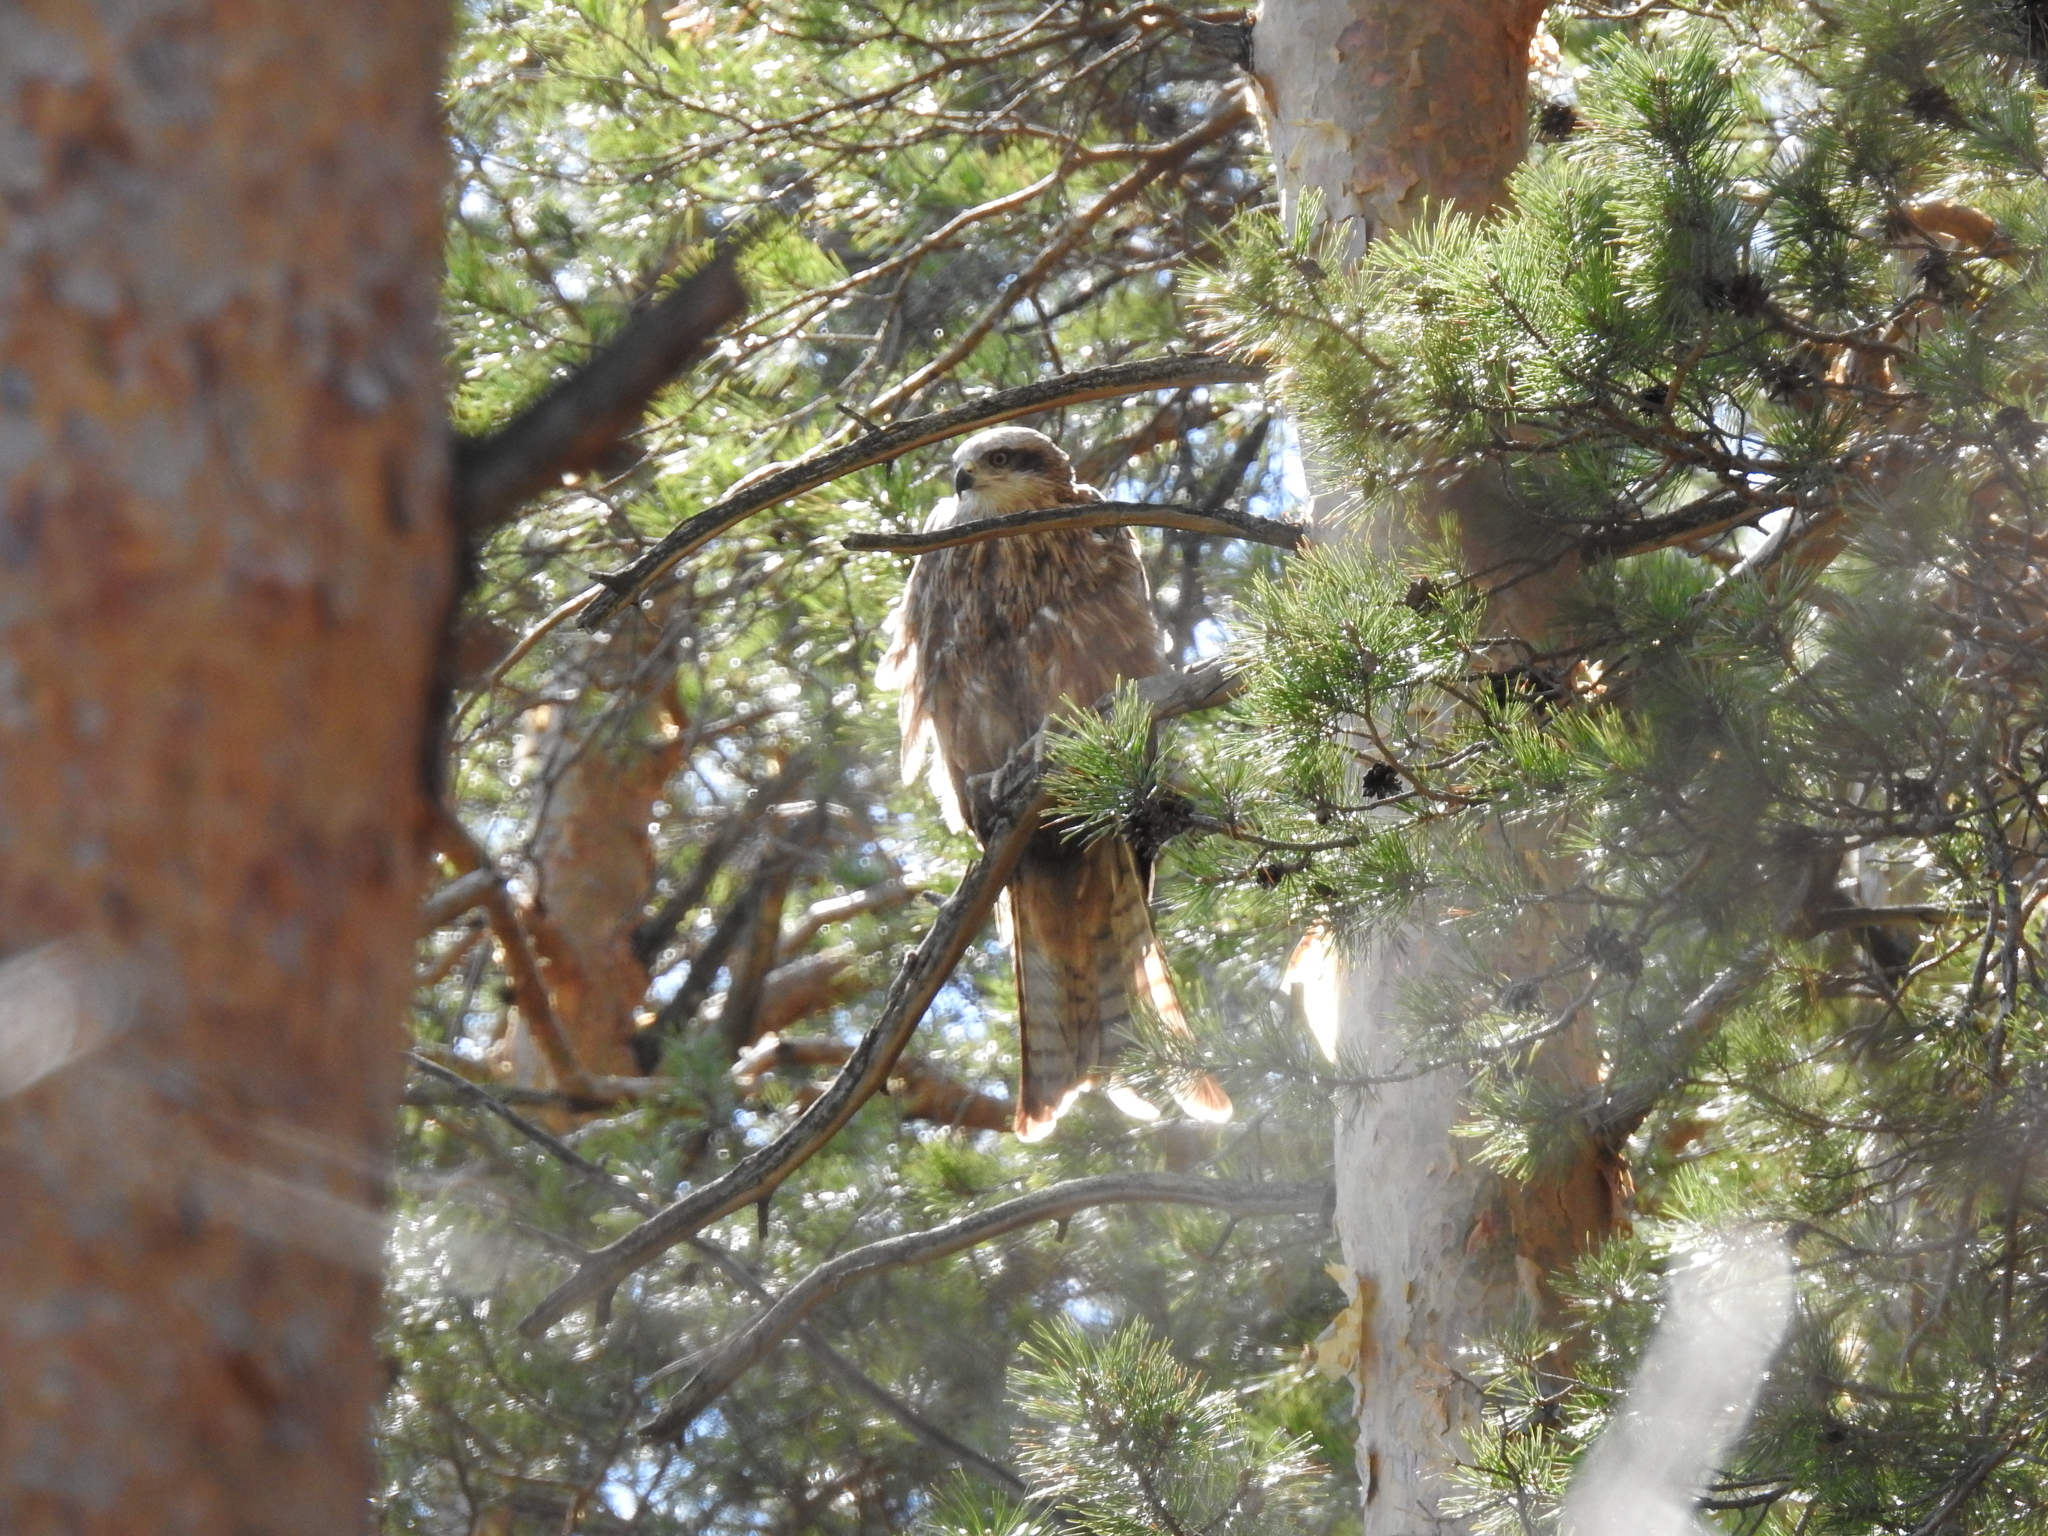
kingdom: Animalia
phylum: Chordata
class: Aves
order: Accipitriformes
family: Accipitridae
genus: Milvus
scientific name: Milvus migrans
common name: Black kite
